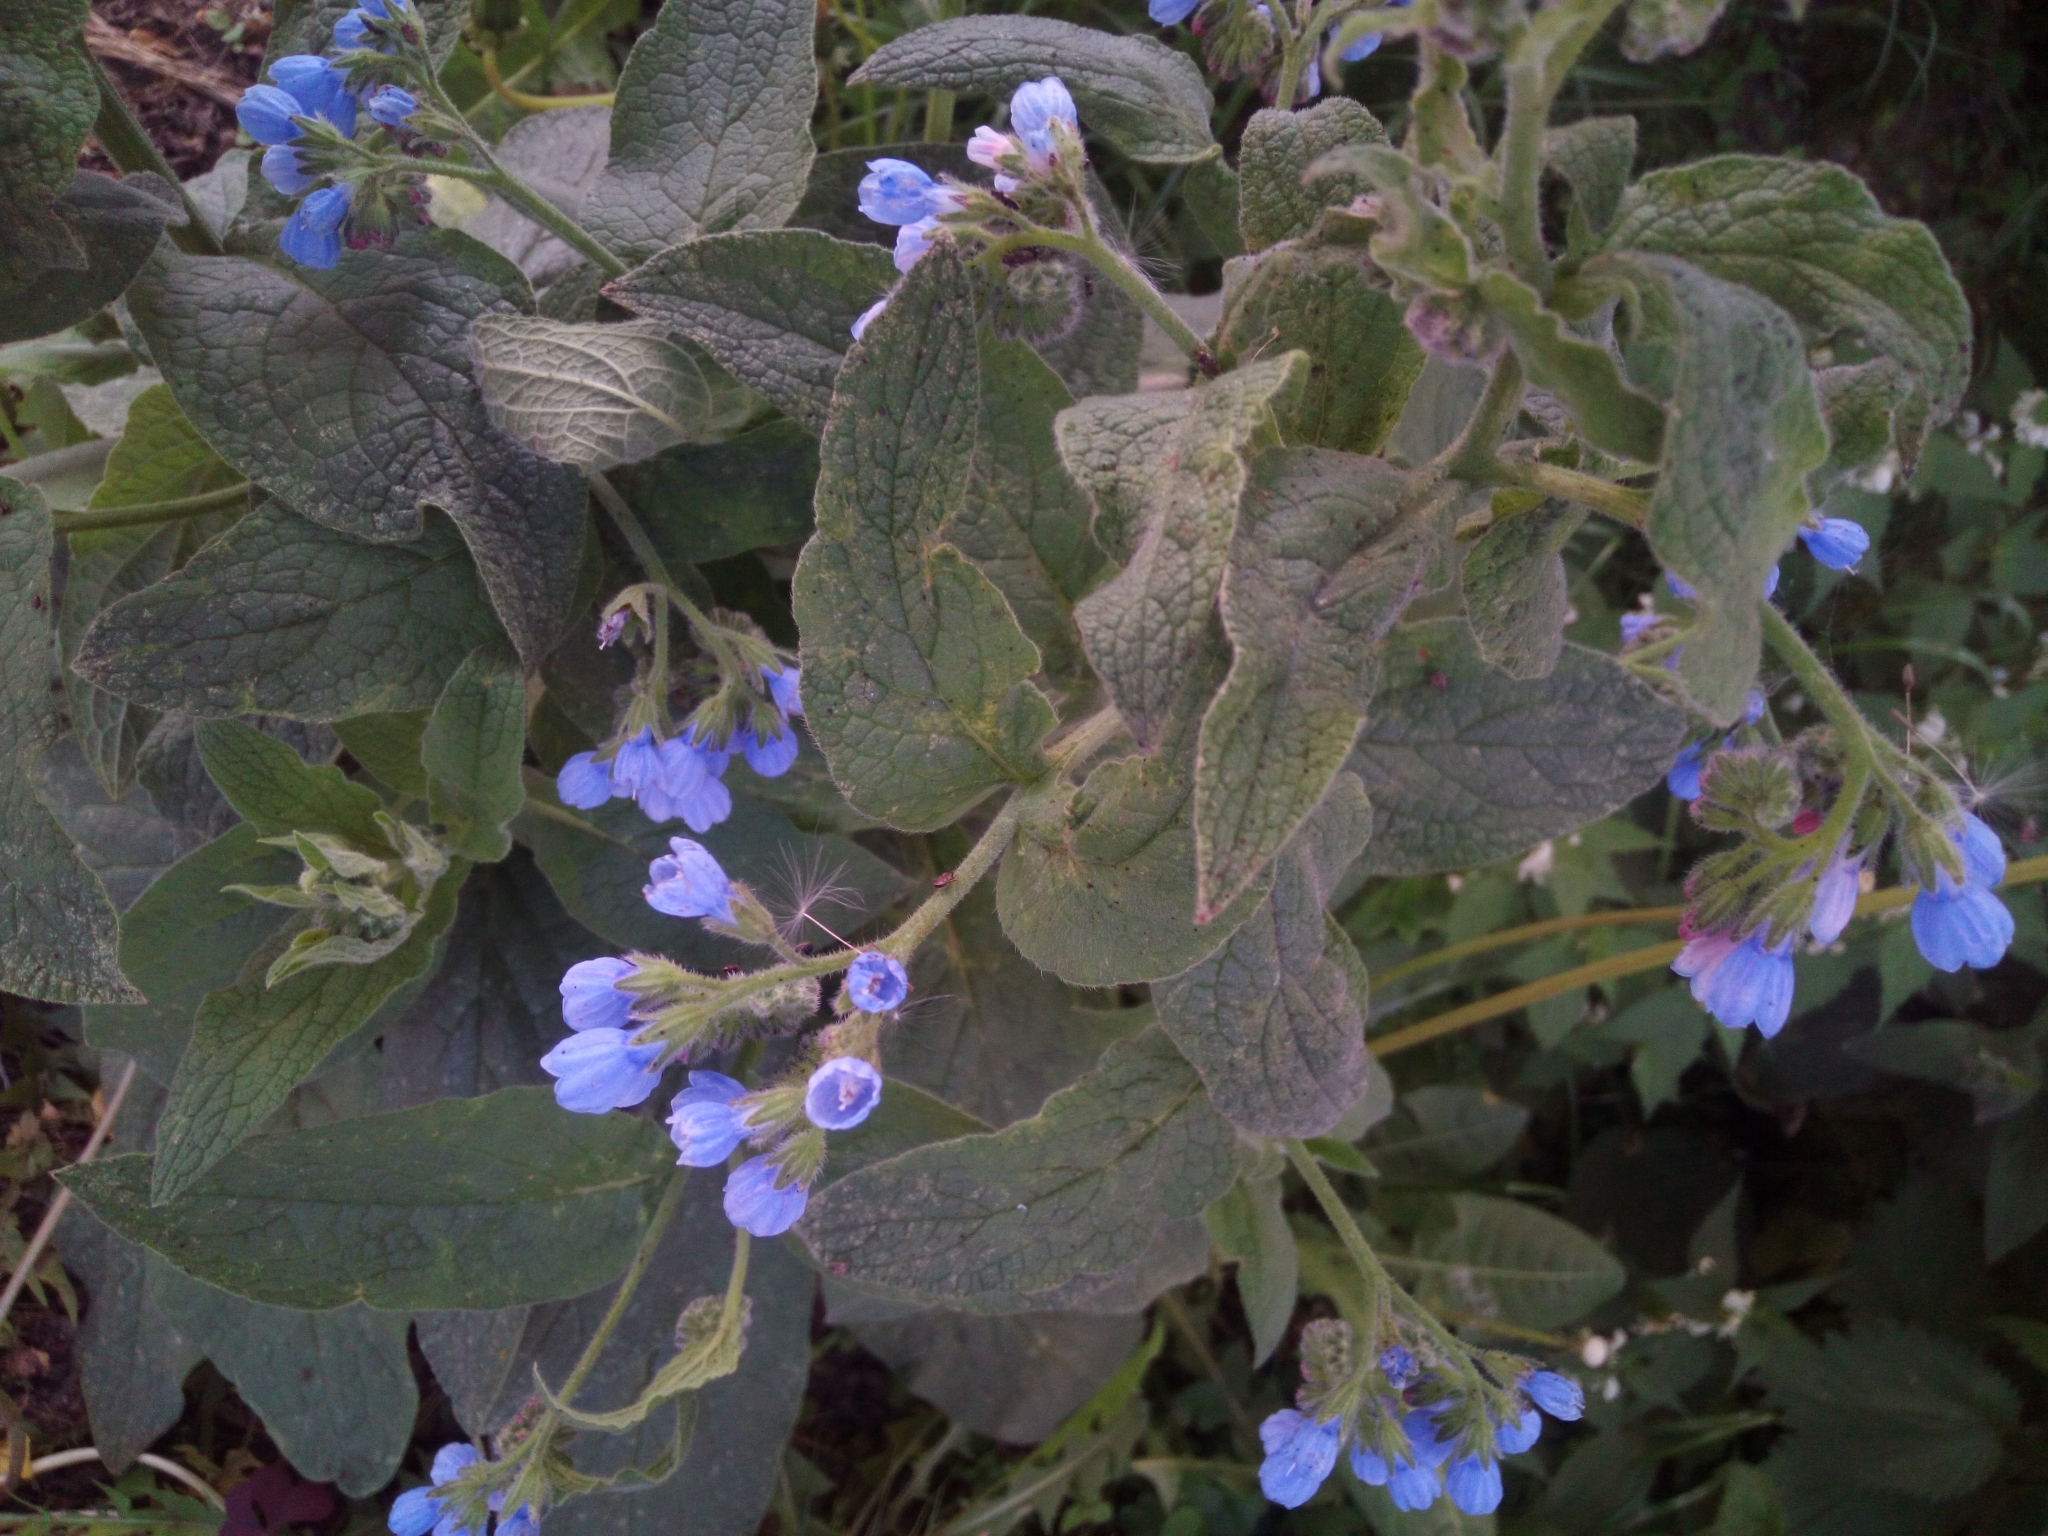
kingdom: Plantae
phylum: Tracheophyta
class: Magnoliopsida
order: Boraginales
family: Boraginaceae
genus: Symphytum
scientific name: Symphytum caucasicum
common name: Caucasian comfrey
